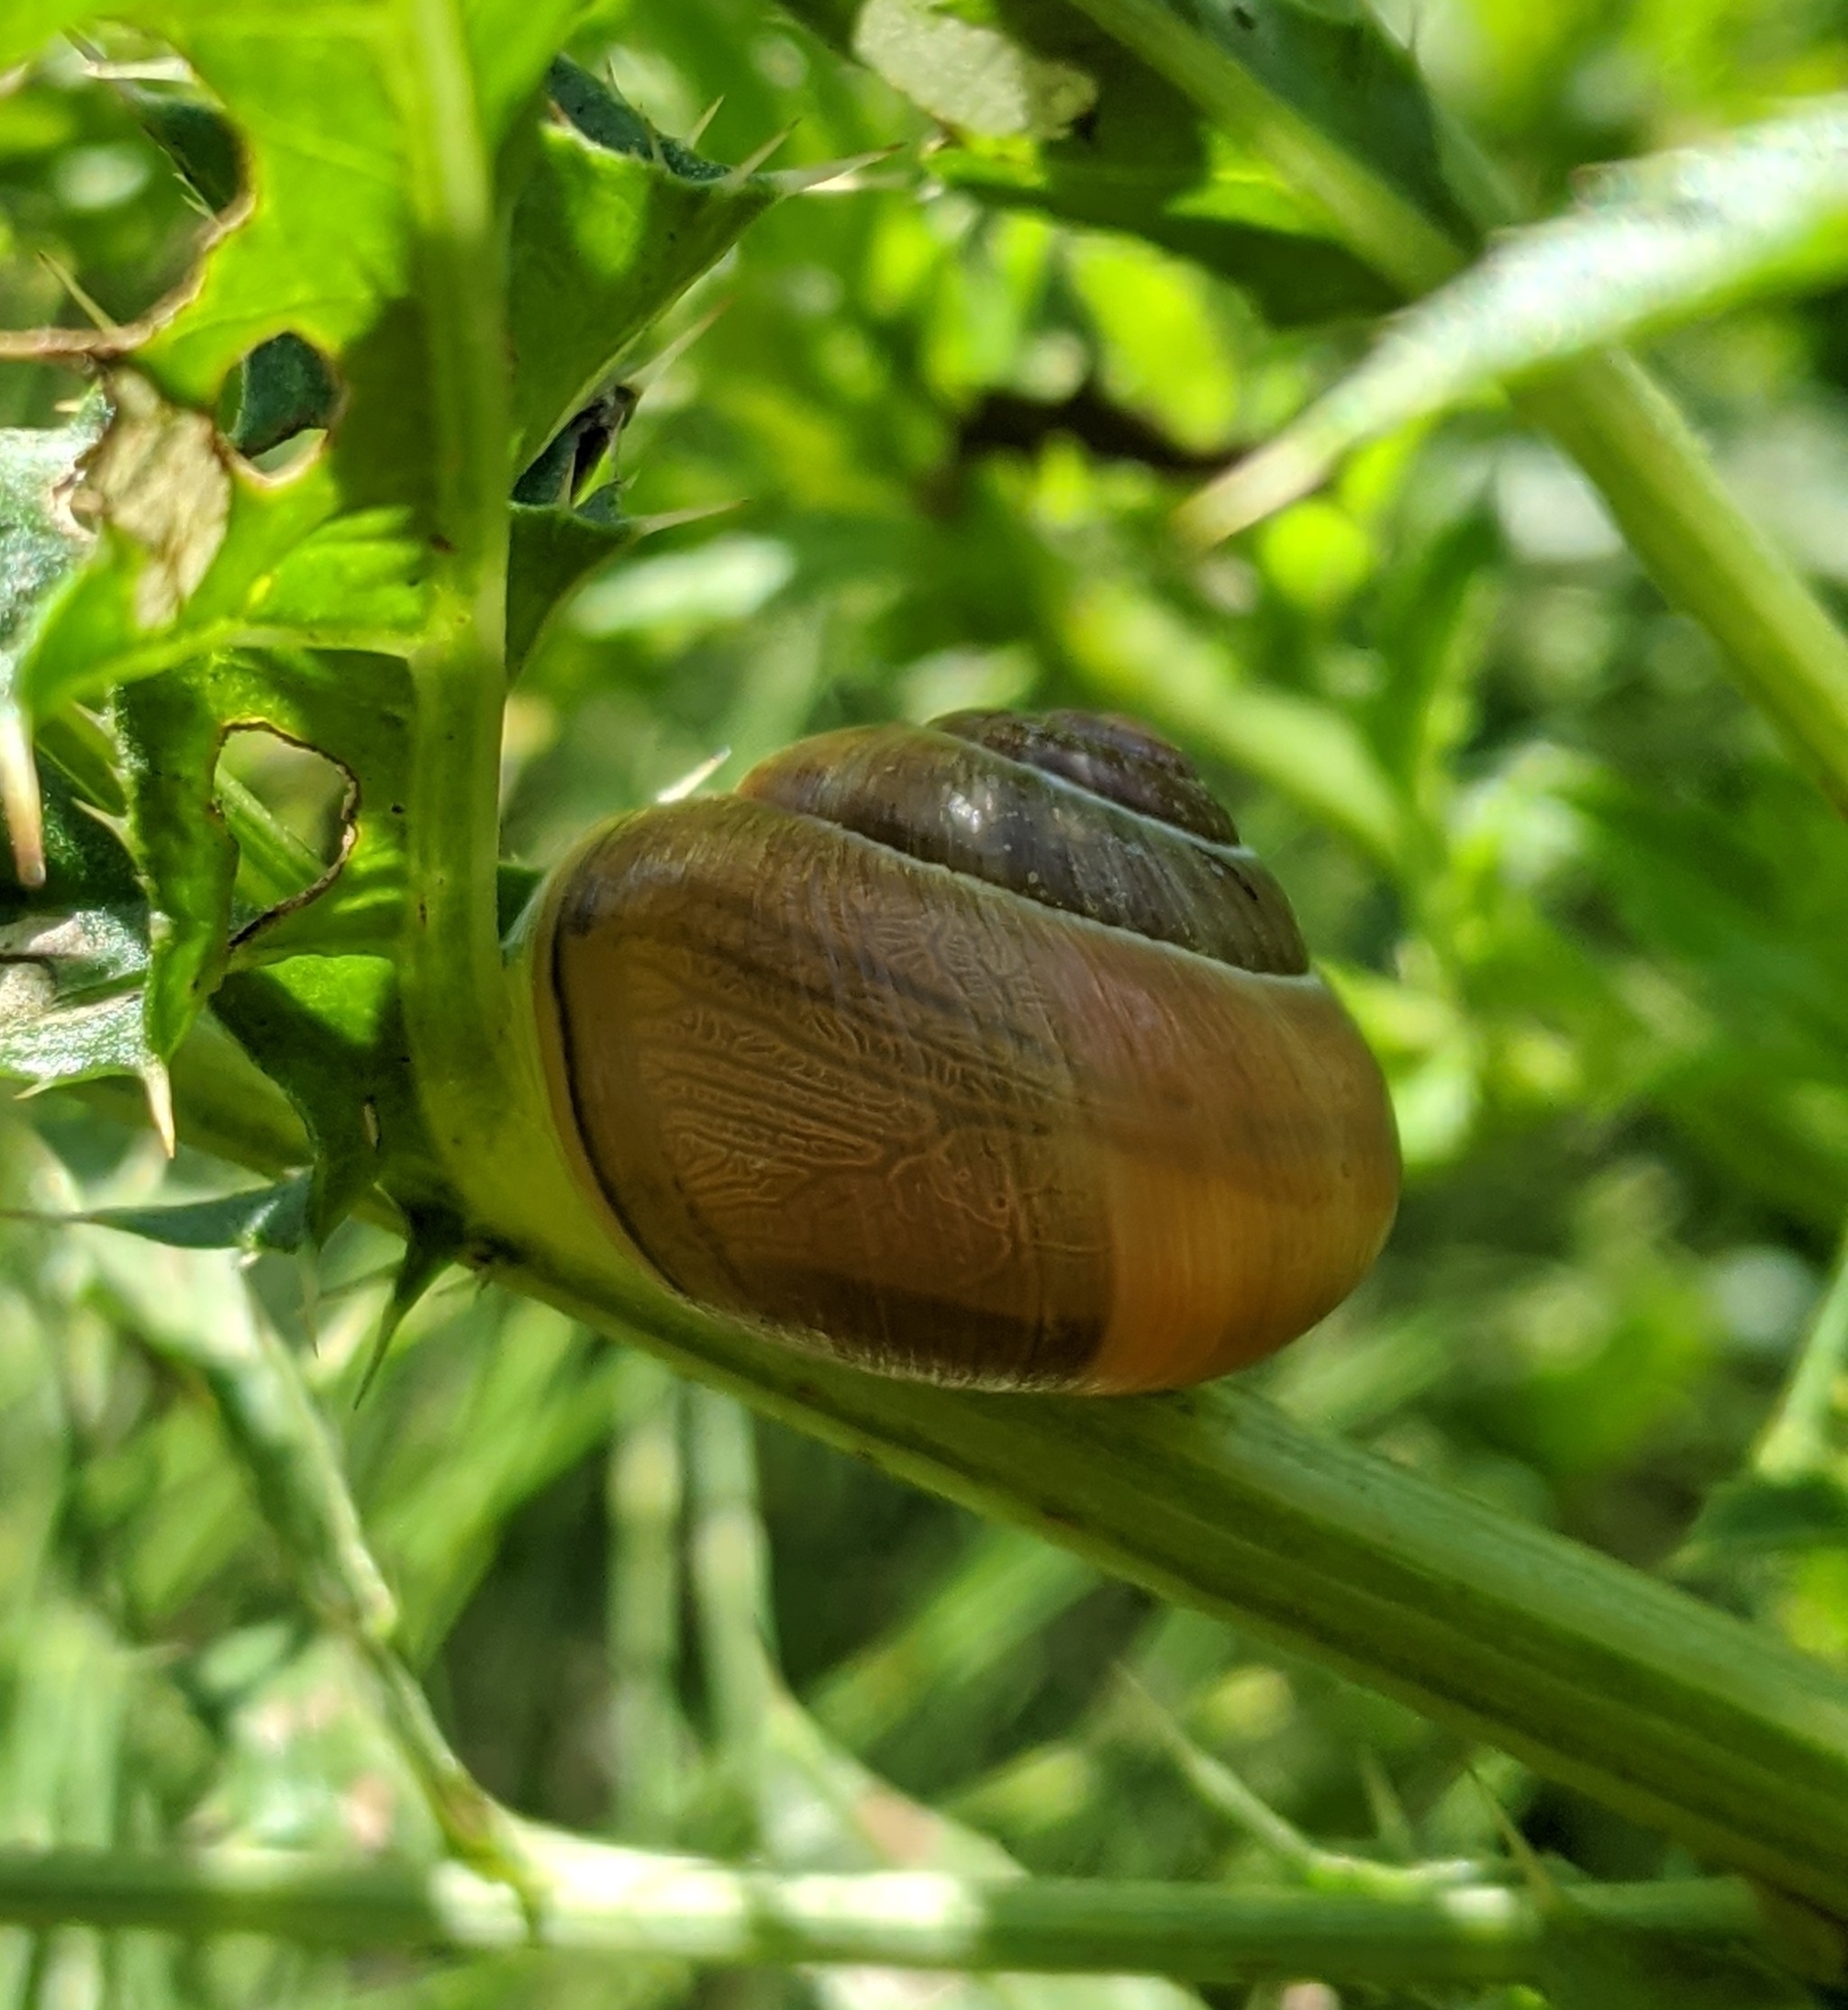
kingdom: Animalia
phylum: Mollusca
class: Gastropoda
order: Stylommatophora
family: Helicidae
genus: Cepaea
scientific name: Cepaea nemoralis
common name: Grovesnail
